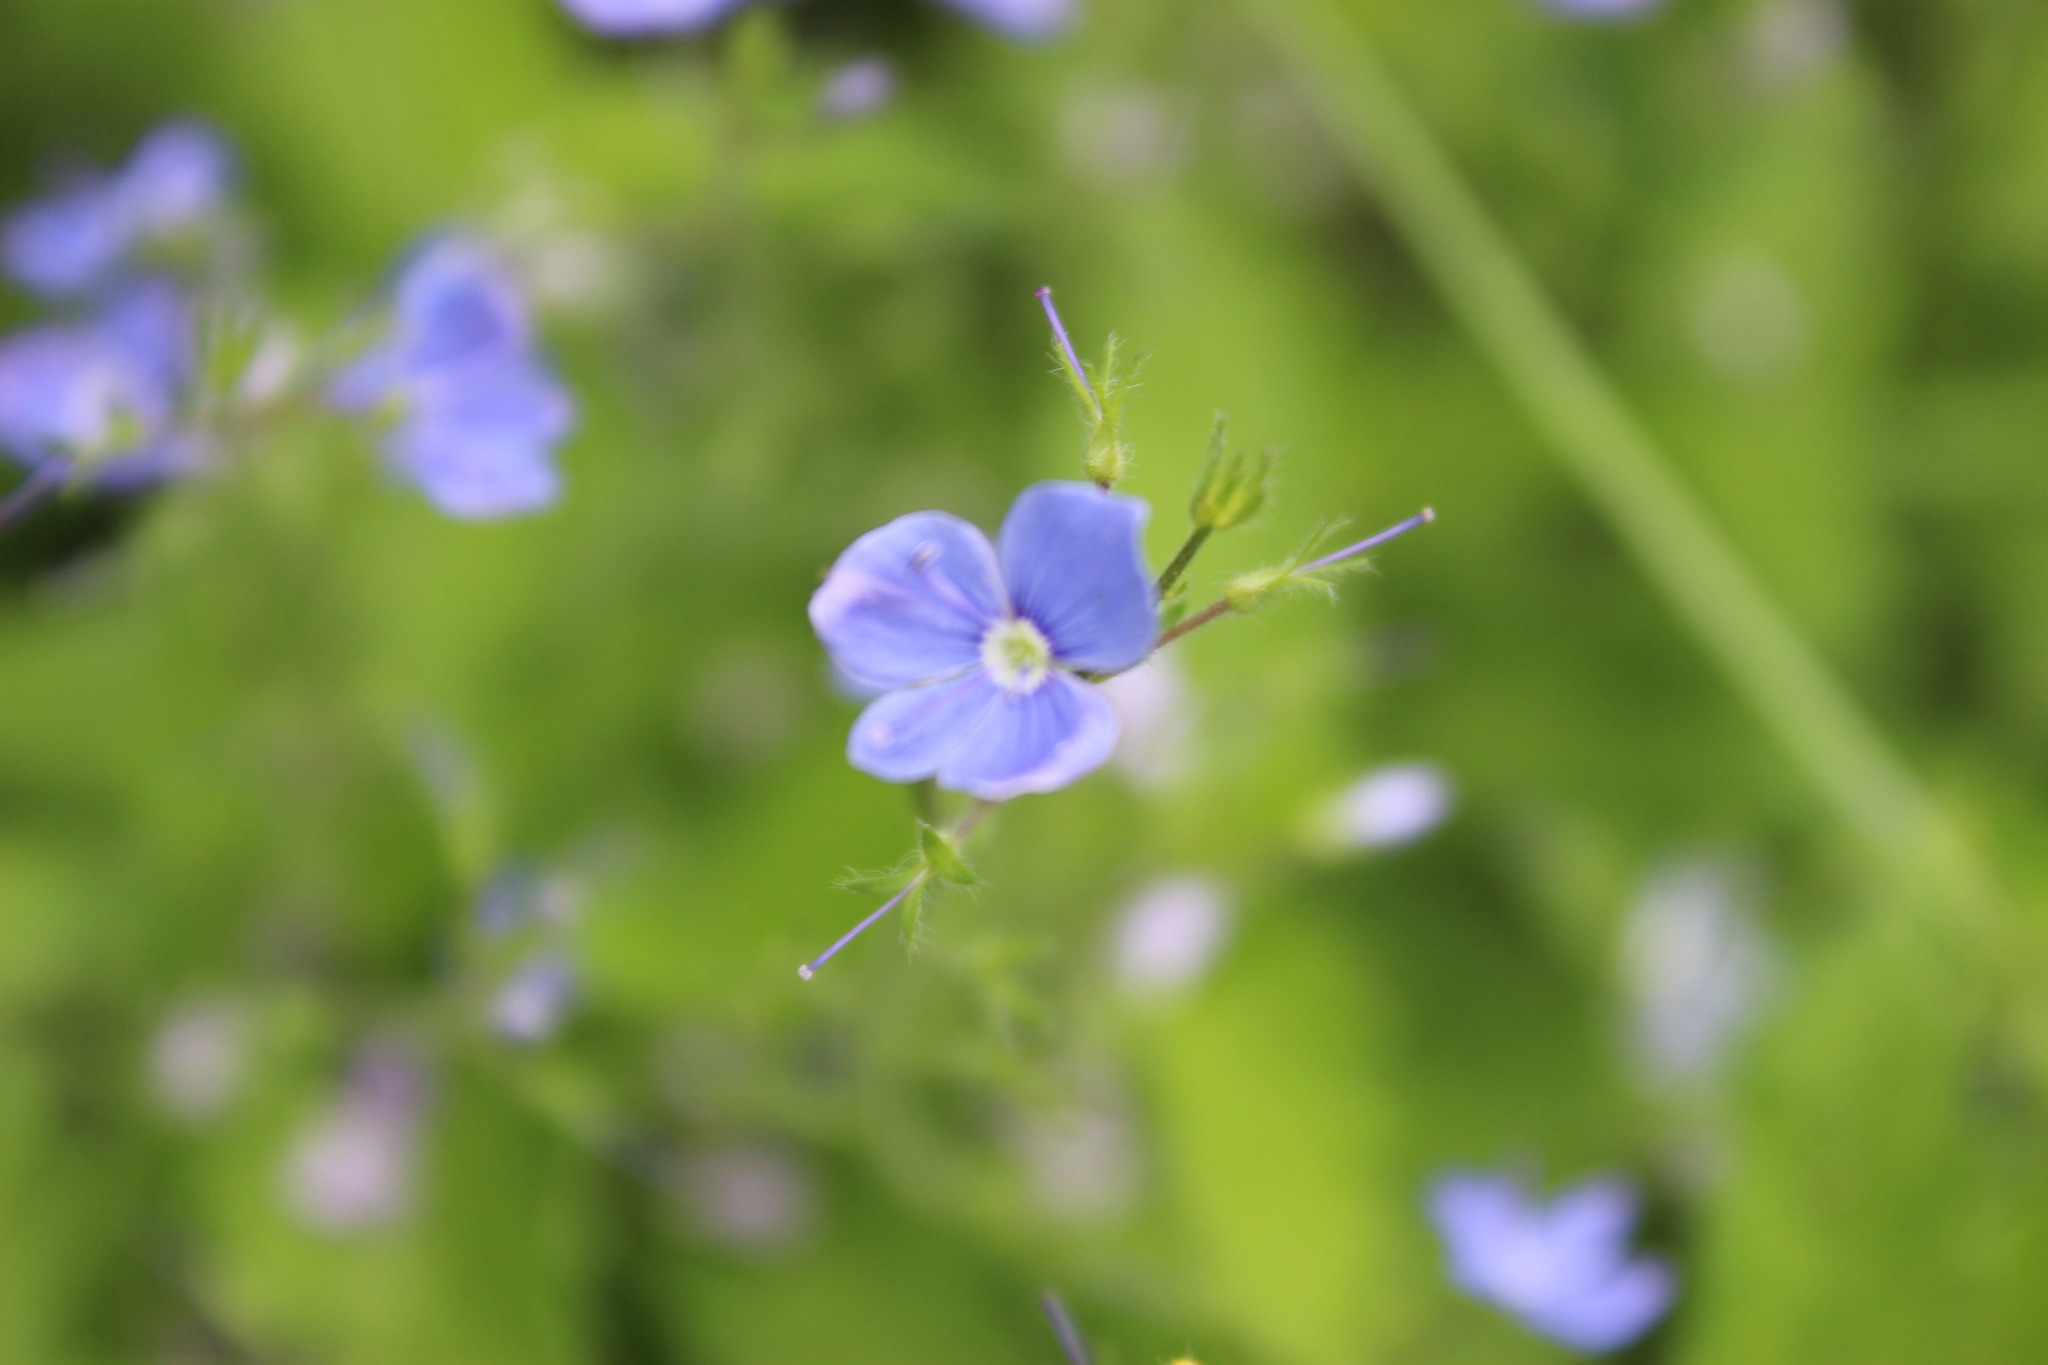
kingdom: Plantae
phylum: Tracheophyta
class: Magnoliopsida
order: Lamiales
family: Plantaginaceae
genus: Veronica
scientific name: Veronica chamaedrys
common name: Germander speedwell
